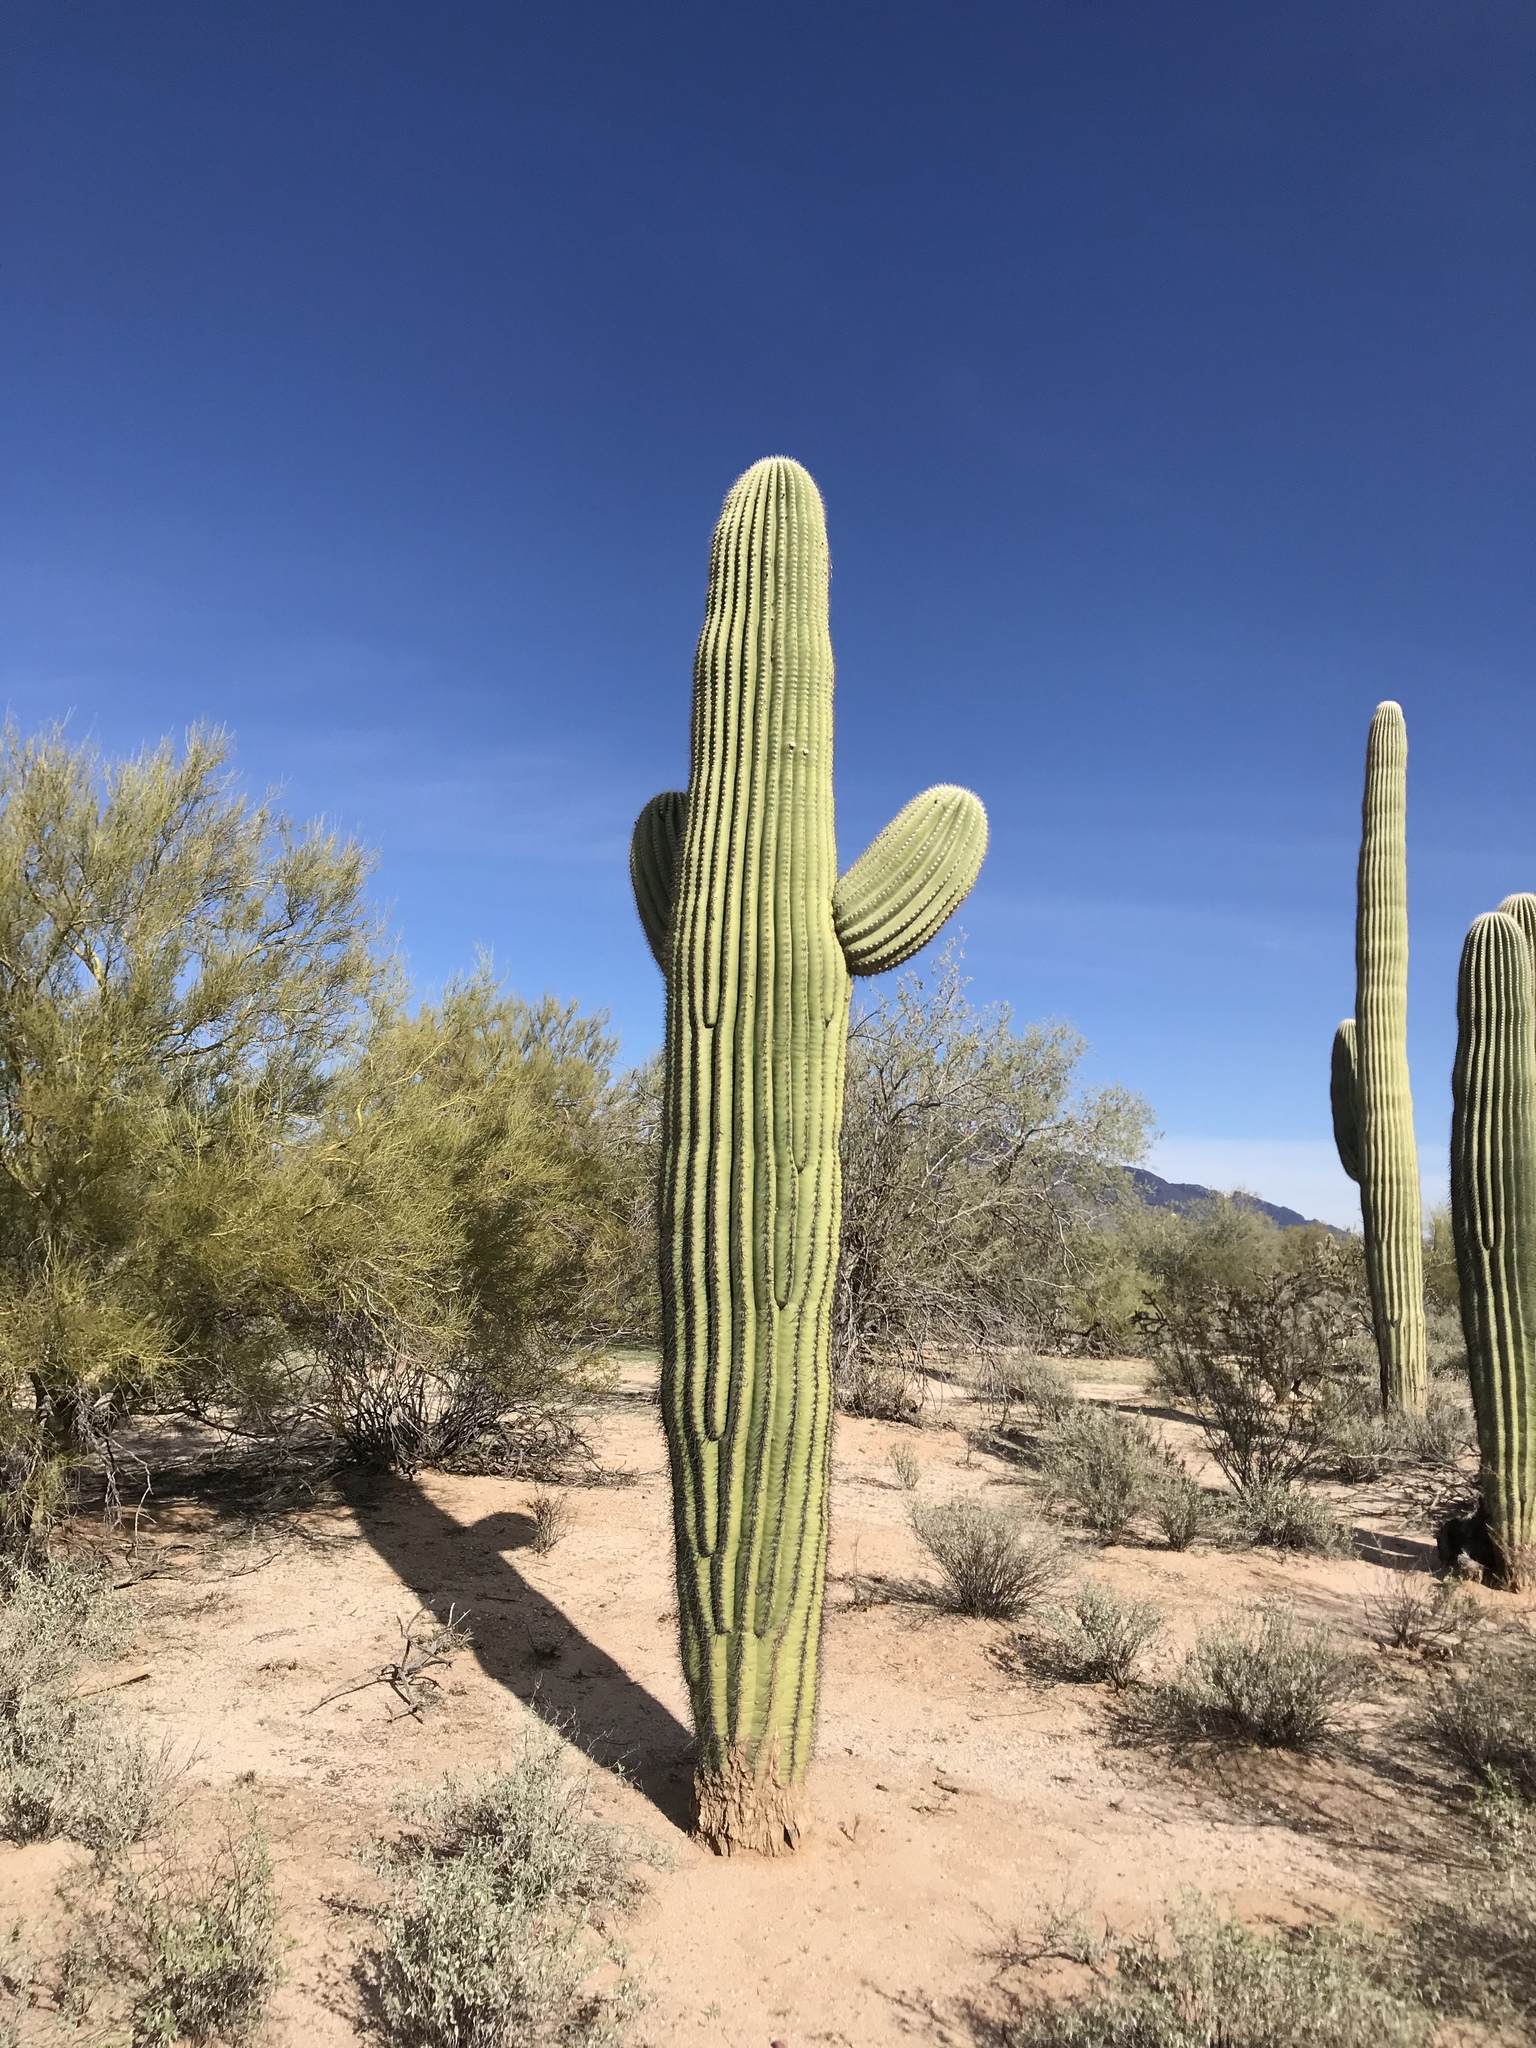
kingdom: Plantae
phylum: Tracheophyta
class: Magnoliopsida
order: Caryophyllales
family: Cactaceae
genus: Carnegiea
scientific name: Carnegiea gigantea
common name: Saguaro
